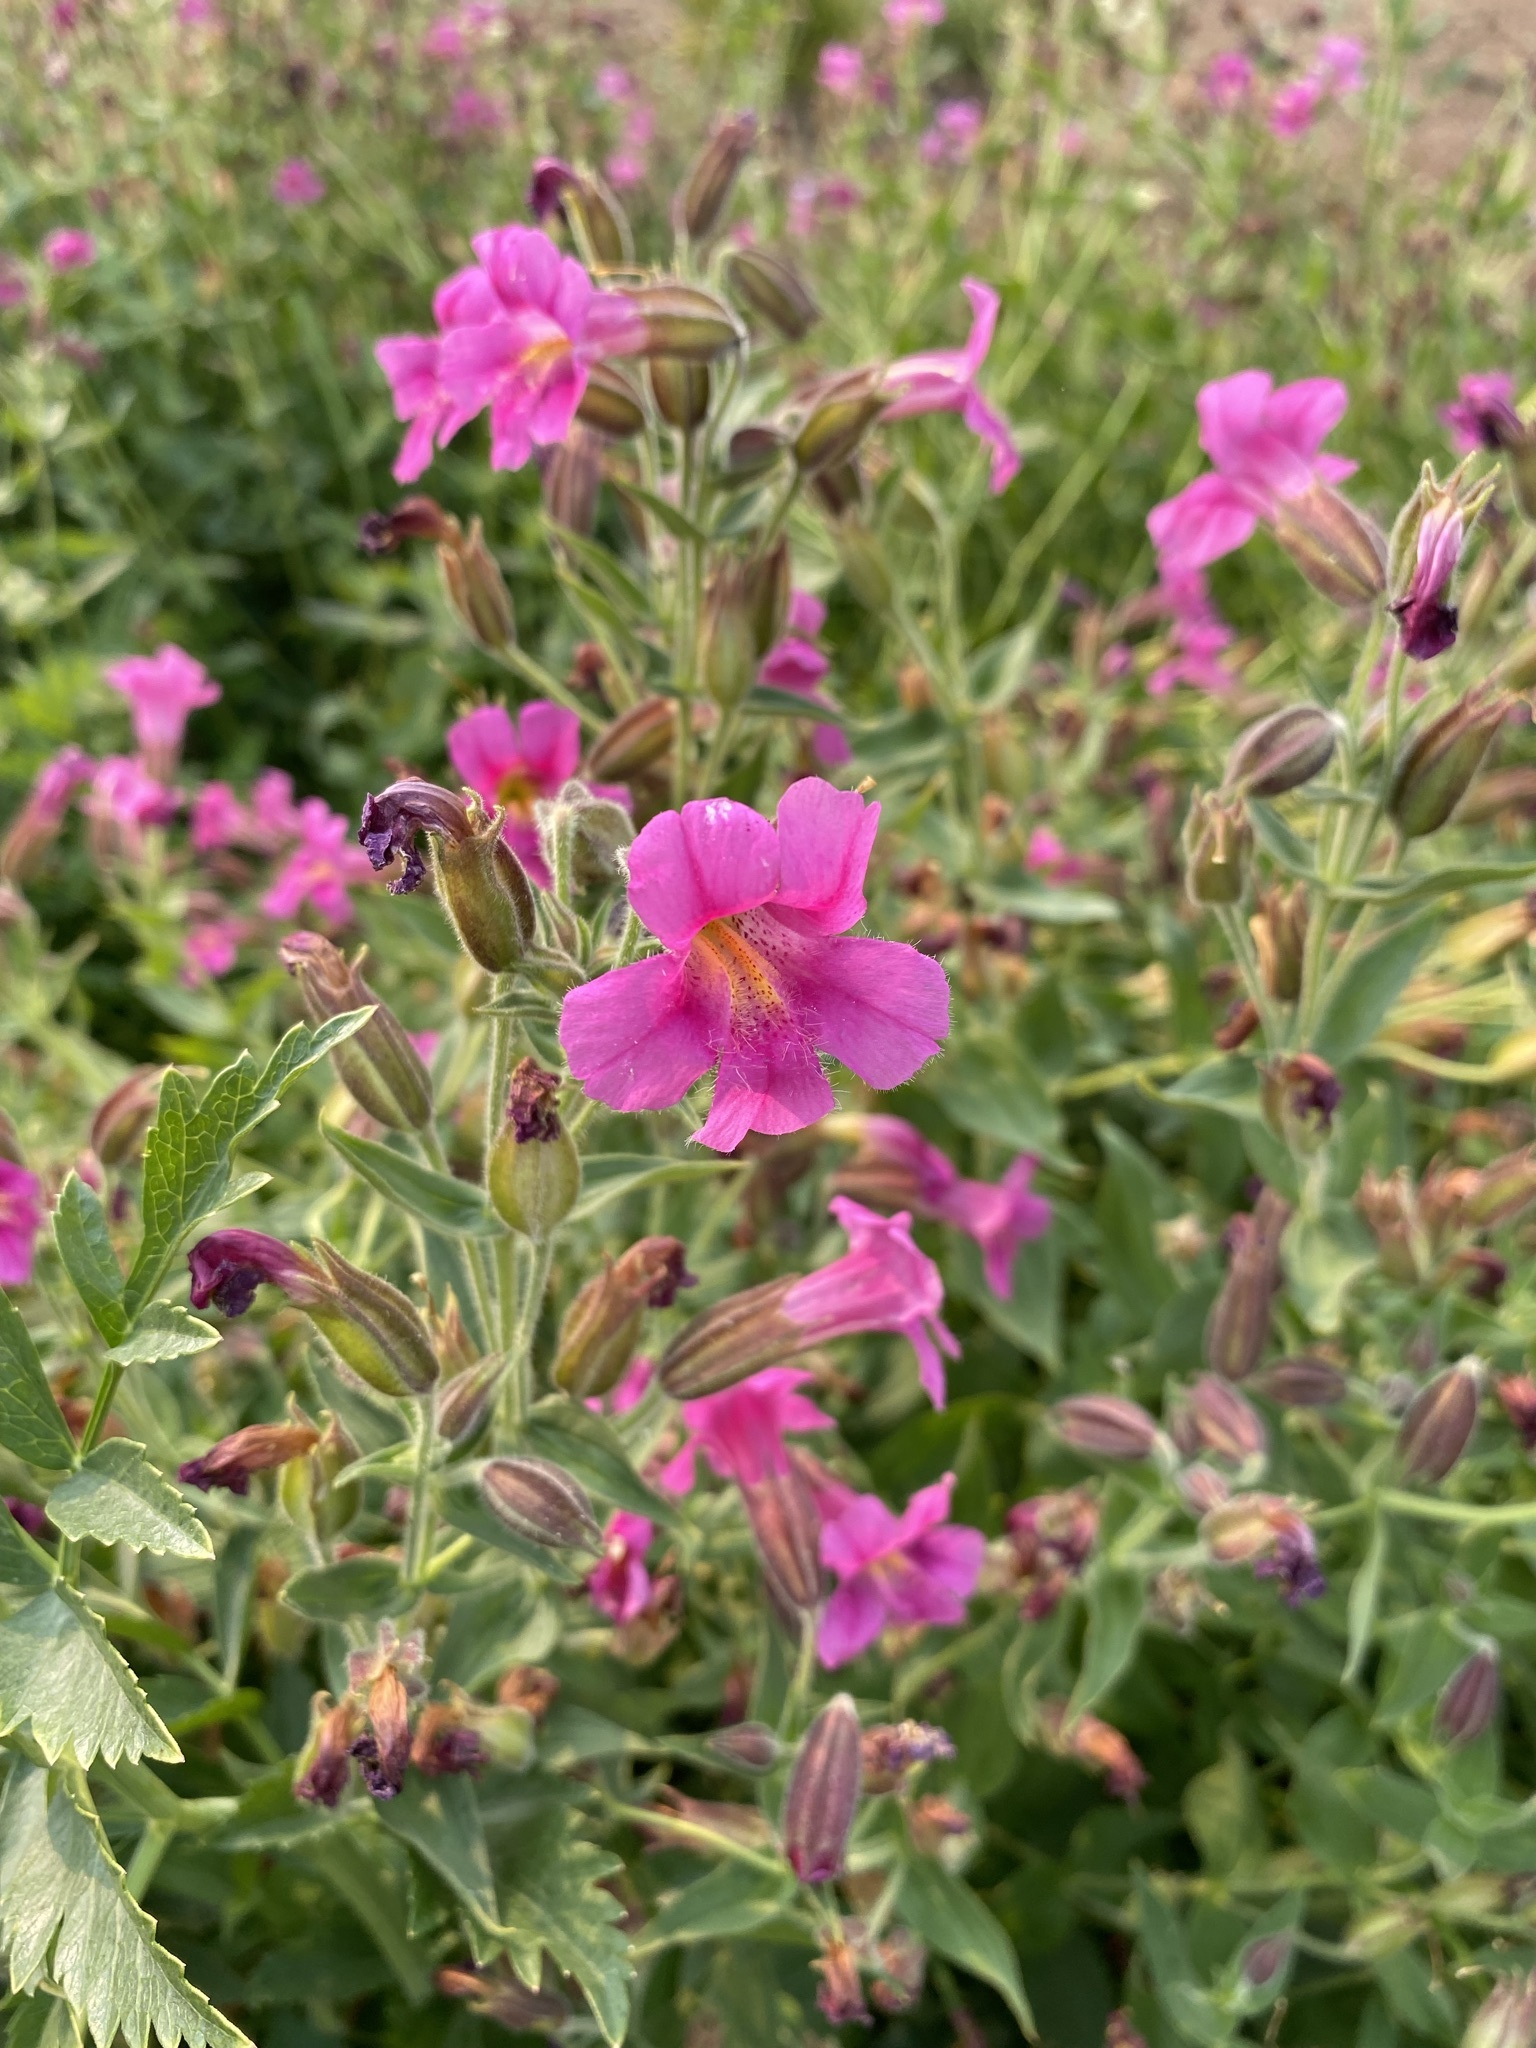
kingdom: Plantae
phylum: Tracheophyta
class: Magnoliopsida
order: Lamiales
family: Phrymaceae
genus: Erythranthe
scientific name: Erythranthe lewisii
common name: Lewis's monkey-flower
